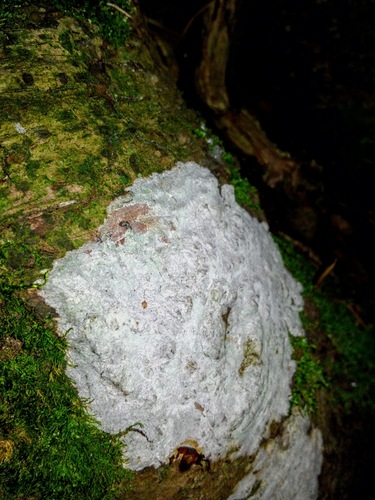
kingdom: Fungi
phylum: Ascomycota
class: Lecanoromycetes
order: Ostropales
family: Phlyctidaceae
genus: Phlyctis
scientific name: Phlyctis
